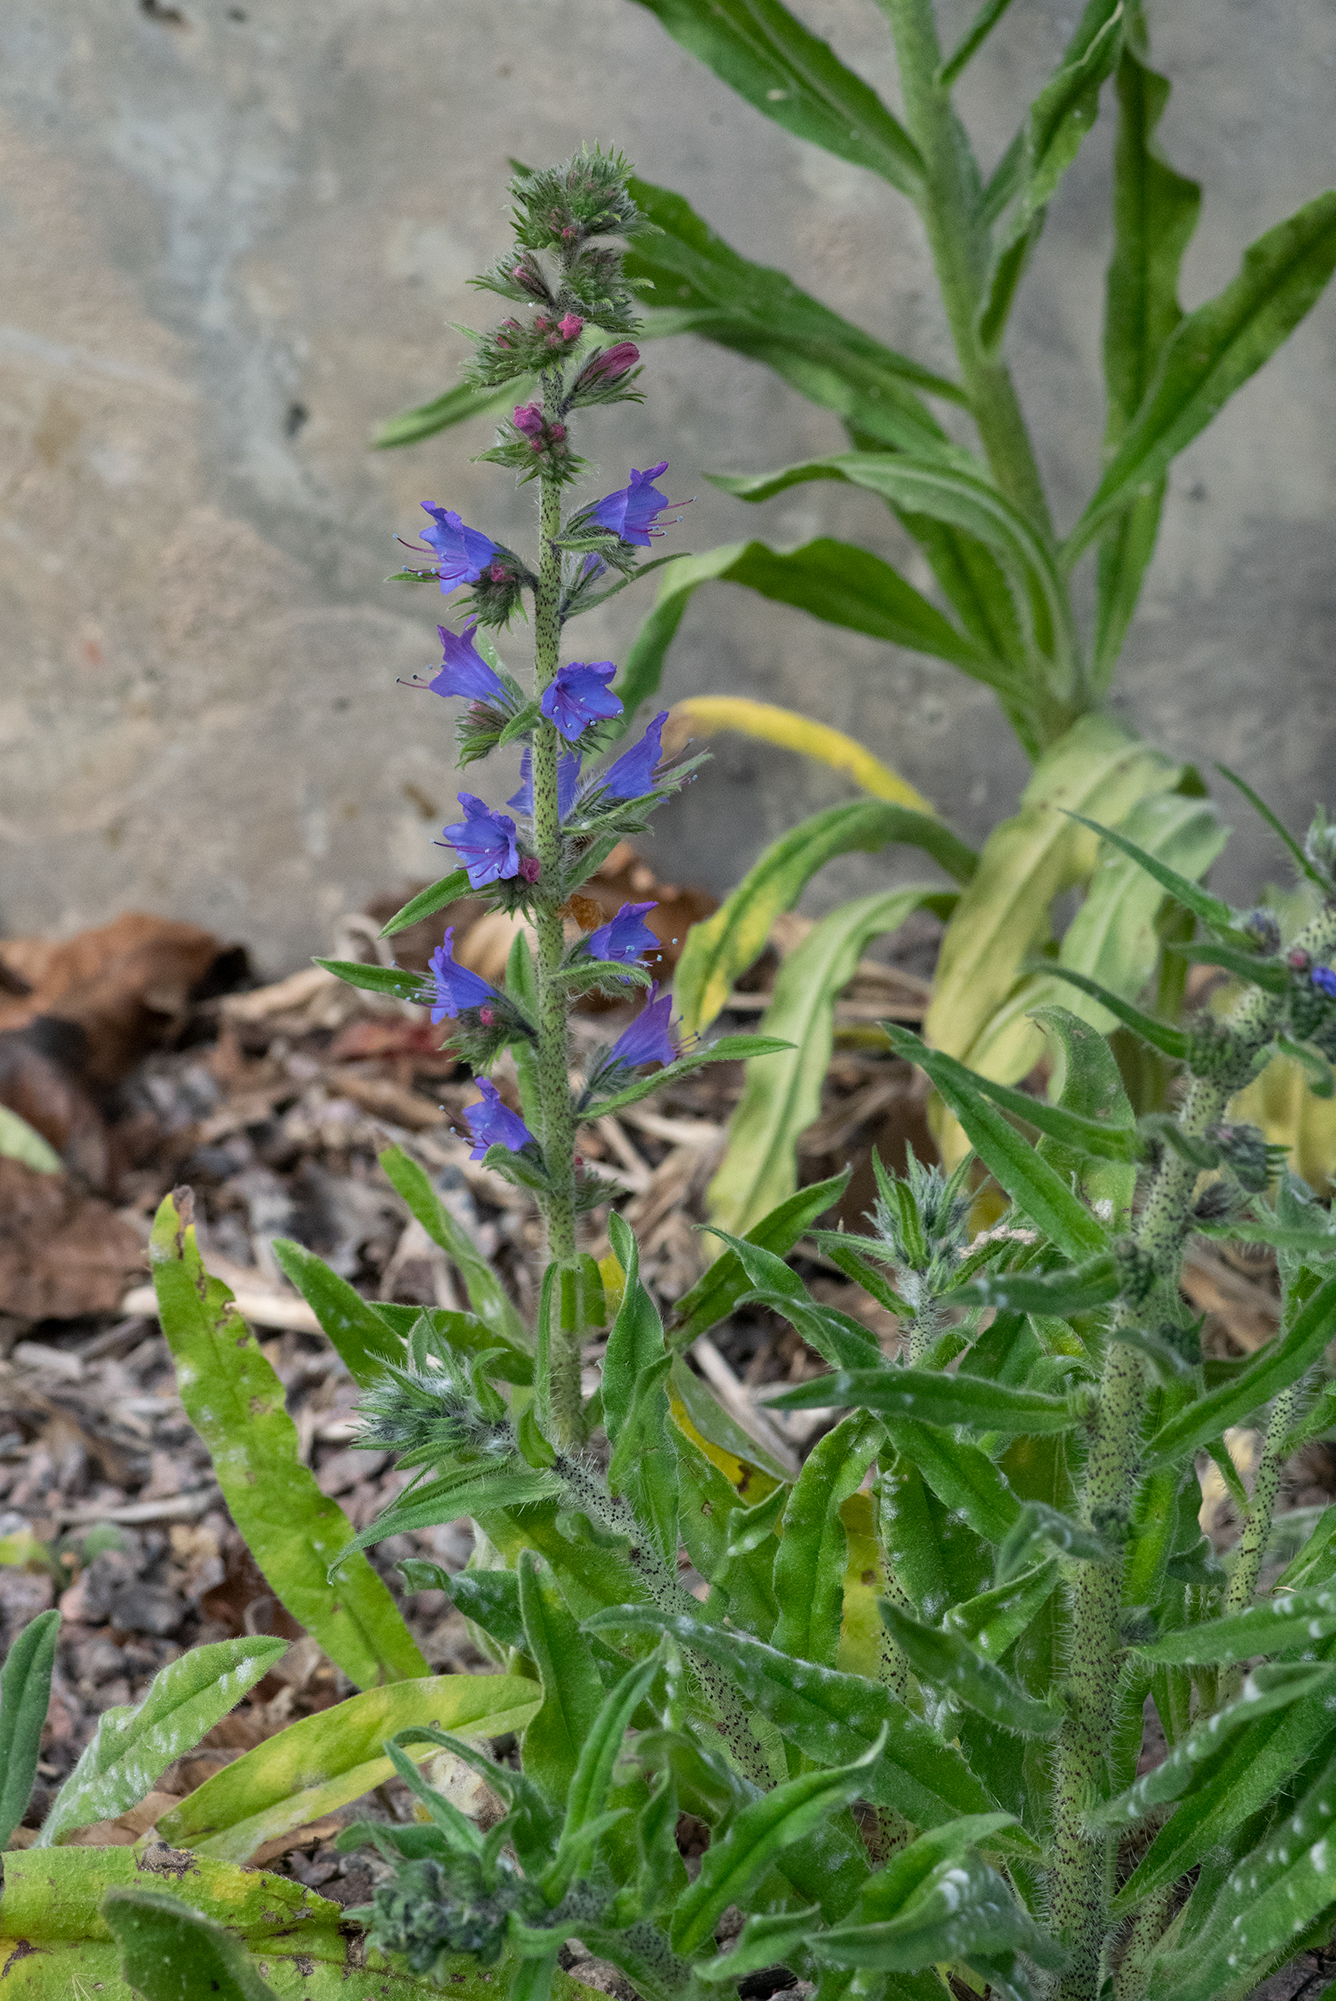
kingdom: Plantae
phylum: Tracheophyta
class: Magnoliopsida
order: Boraginales
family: Boraginaceae
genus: Echium
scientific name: Echium vulgare
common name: Common viper's bugloss
